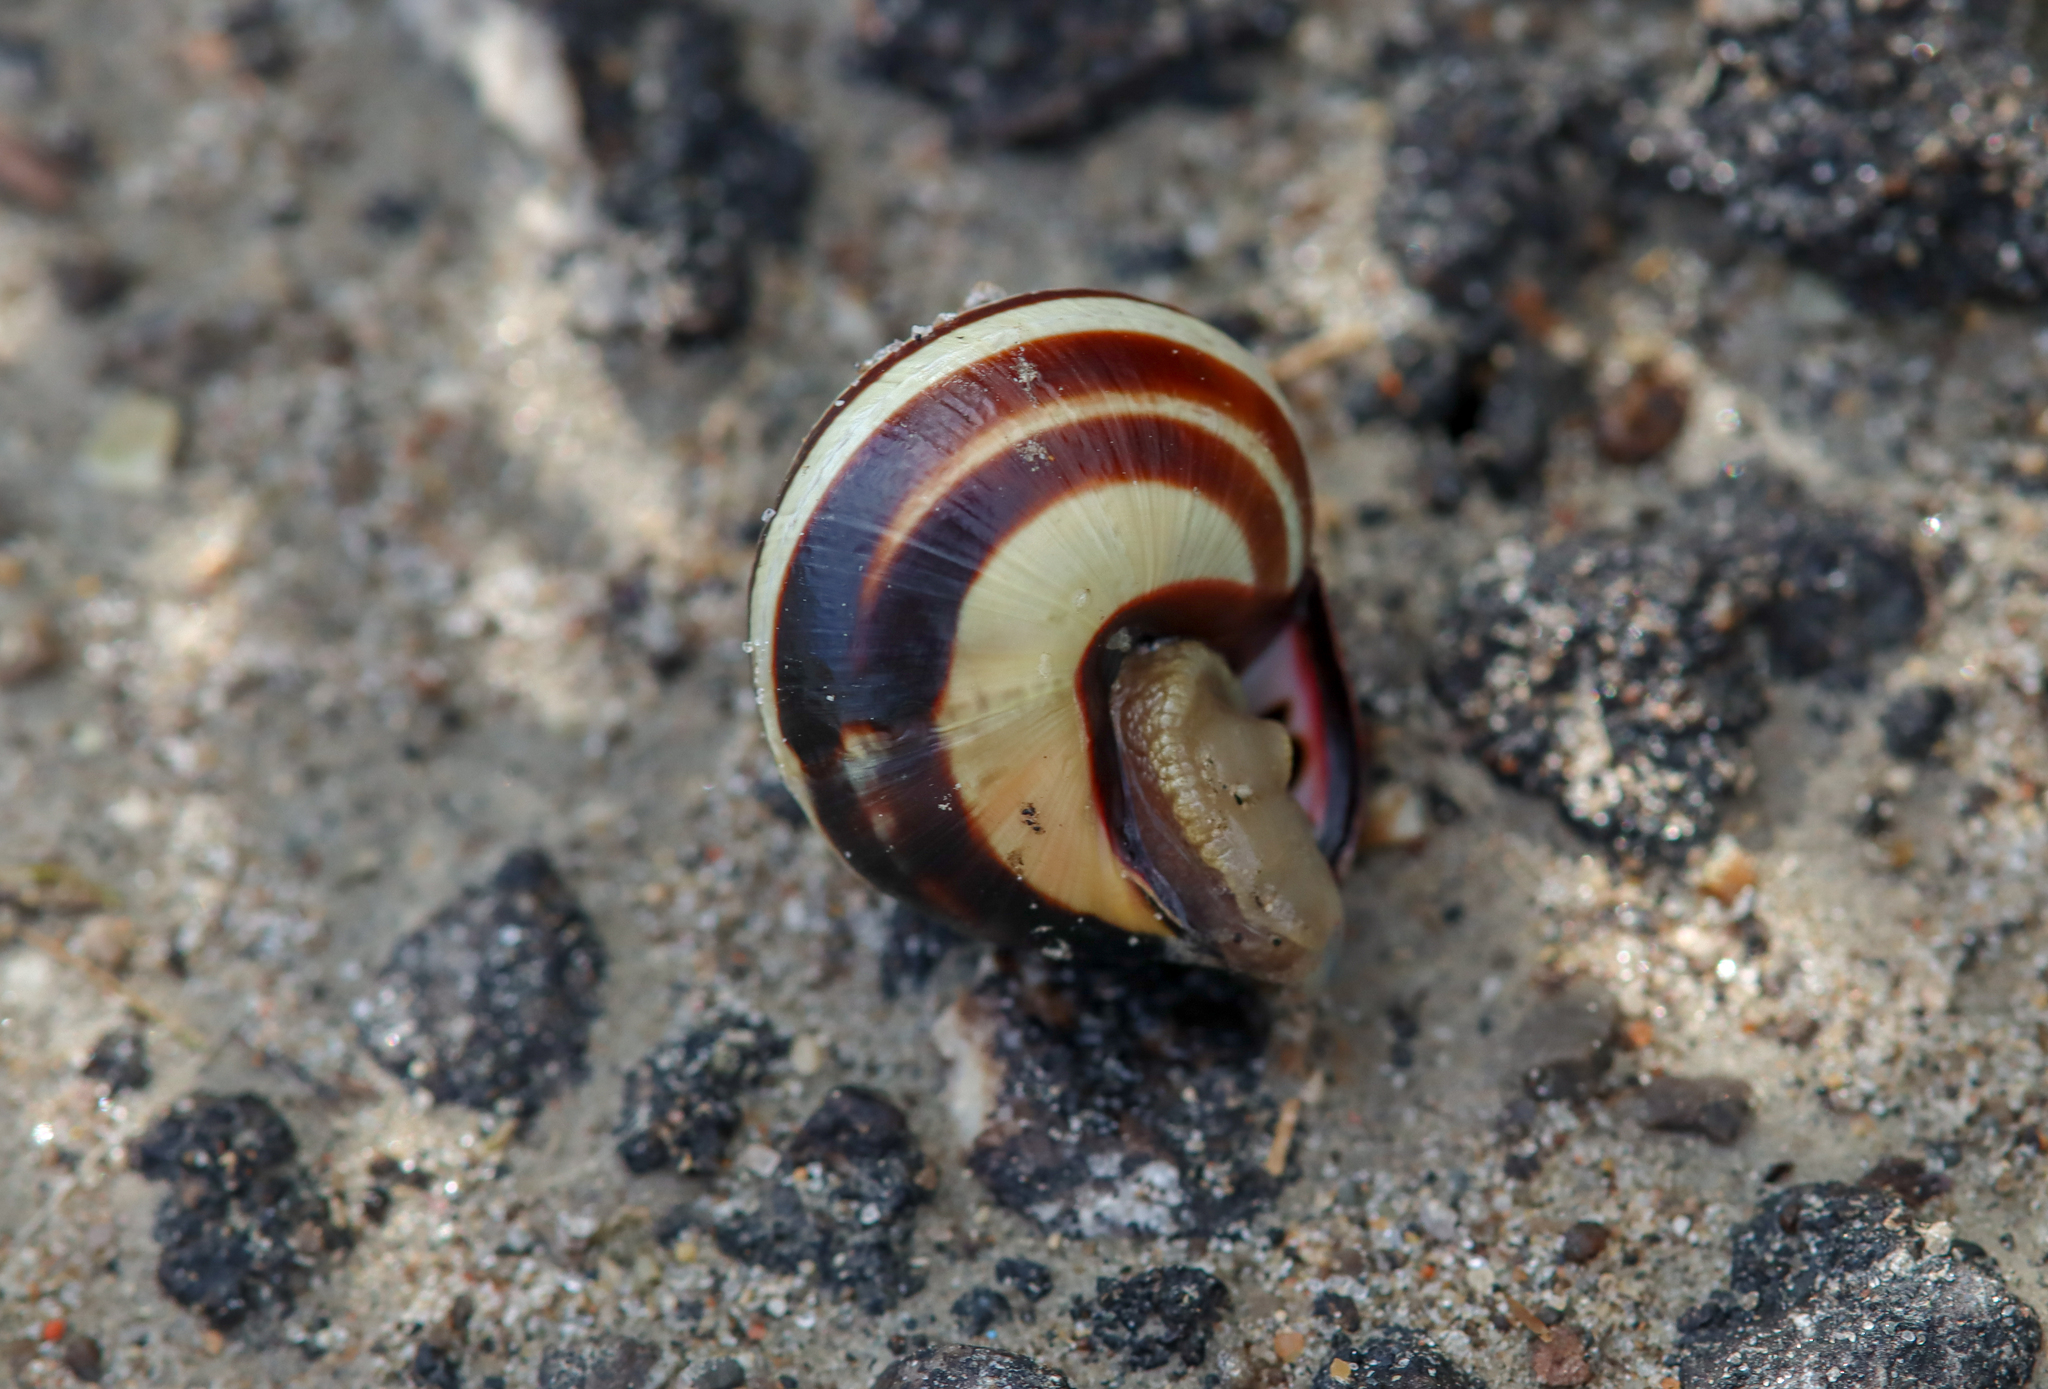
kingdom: Animalia
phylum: Mollusca
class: Gastropoda
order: Stylommatophora
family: Helicidae
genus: Cepaea
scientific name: Cepaea nemoralis
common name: Grovesnail
